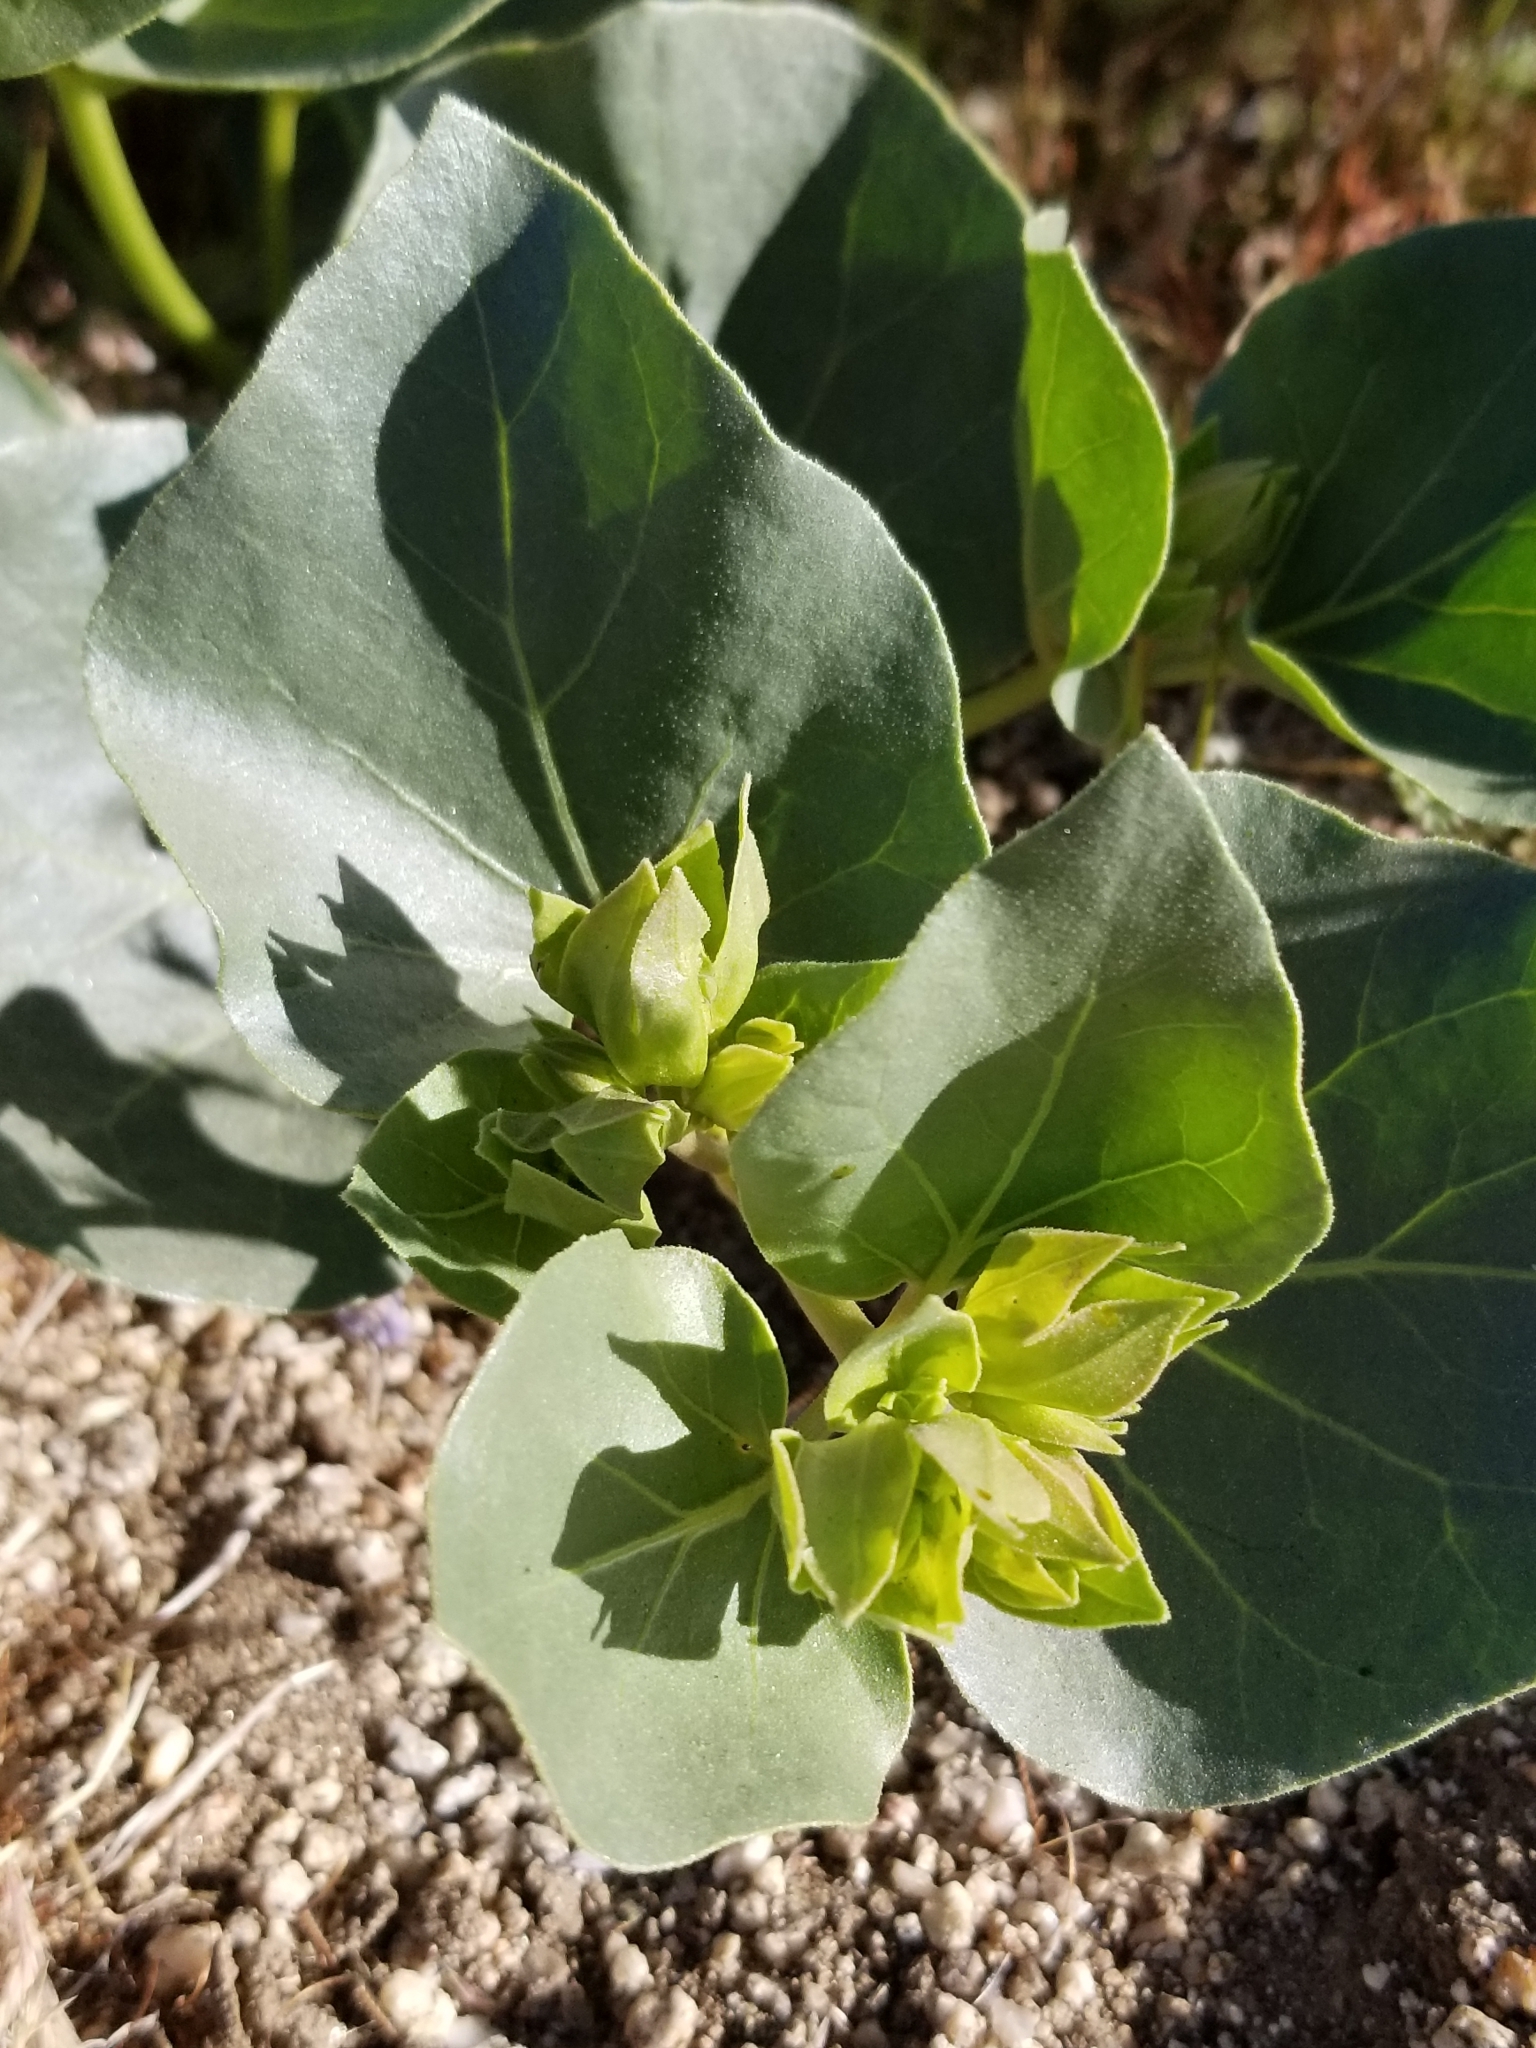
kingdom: Plantae
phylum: Tracheophyta
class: Magnoliopsida
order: Caryophyllales
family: Nyctaginaceae
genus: Mirabilis
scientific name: Mirabilis multiflora
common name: Froebel's four-o'clock
